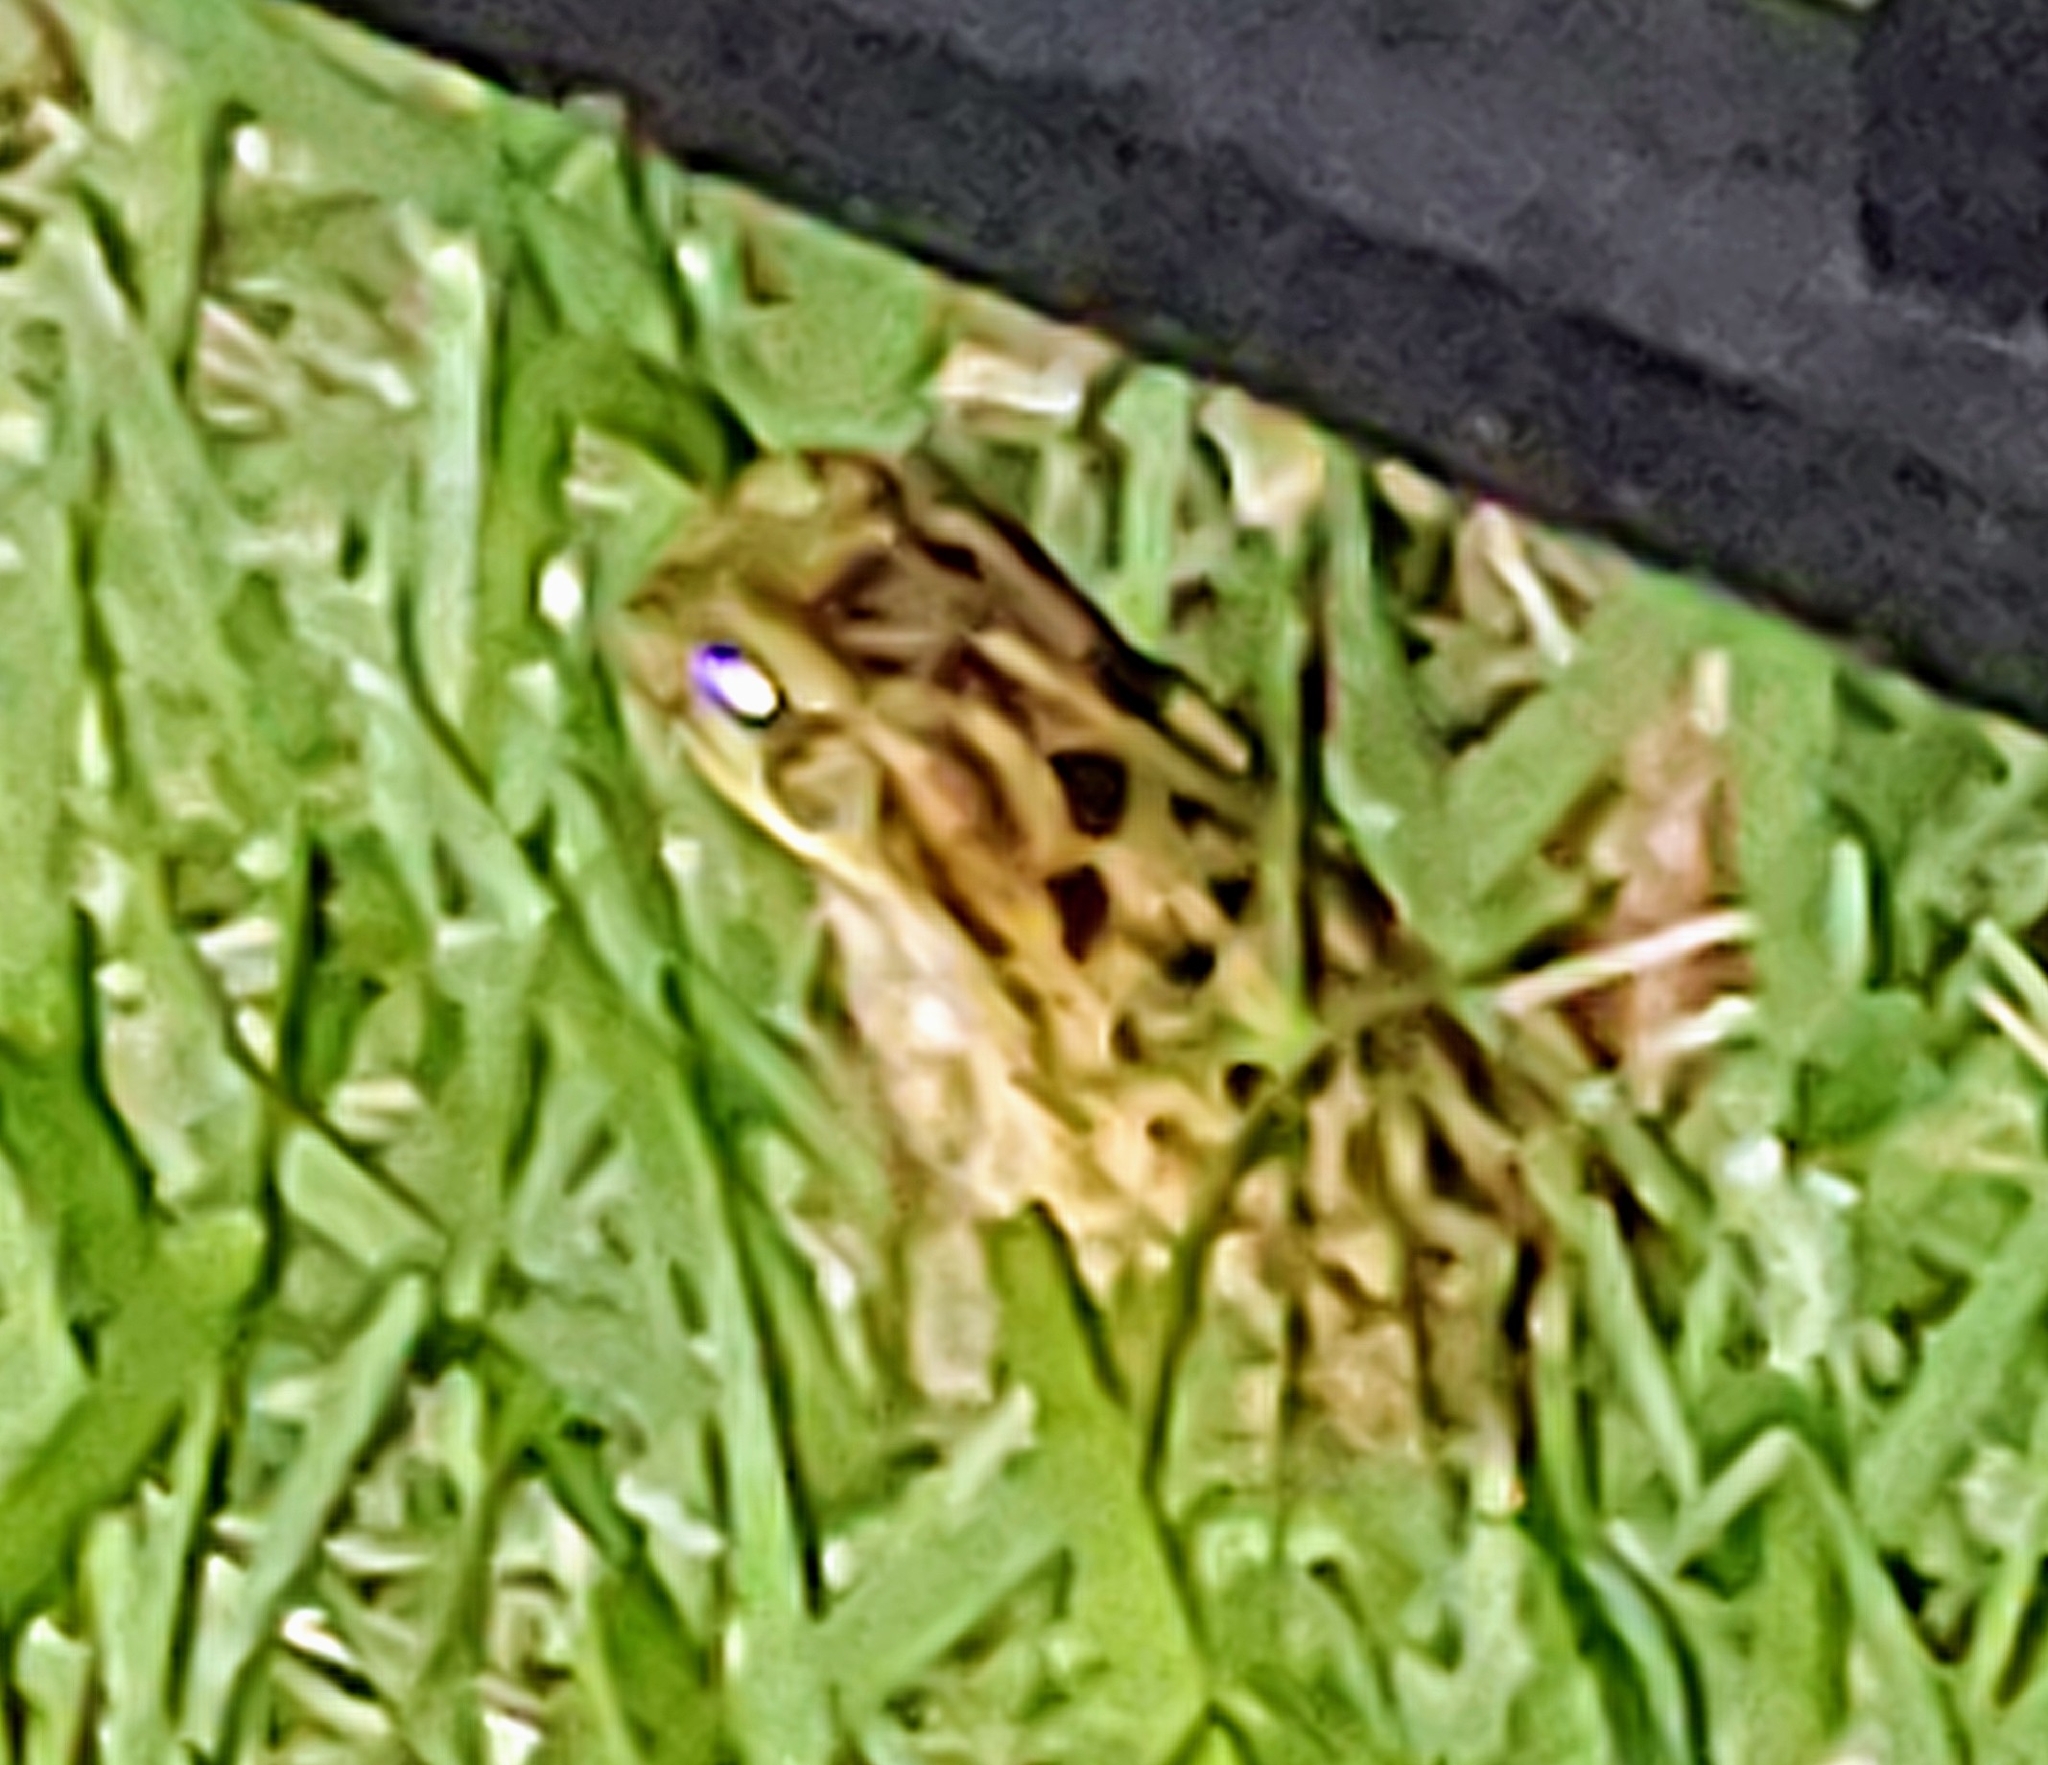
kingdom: Animalia
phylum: Chordata
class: Amphibia
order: Anura
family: Bufonidae
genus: Rhinella
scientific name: Rhinella marina
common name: Cane toad
